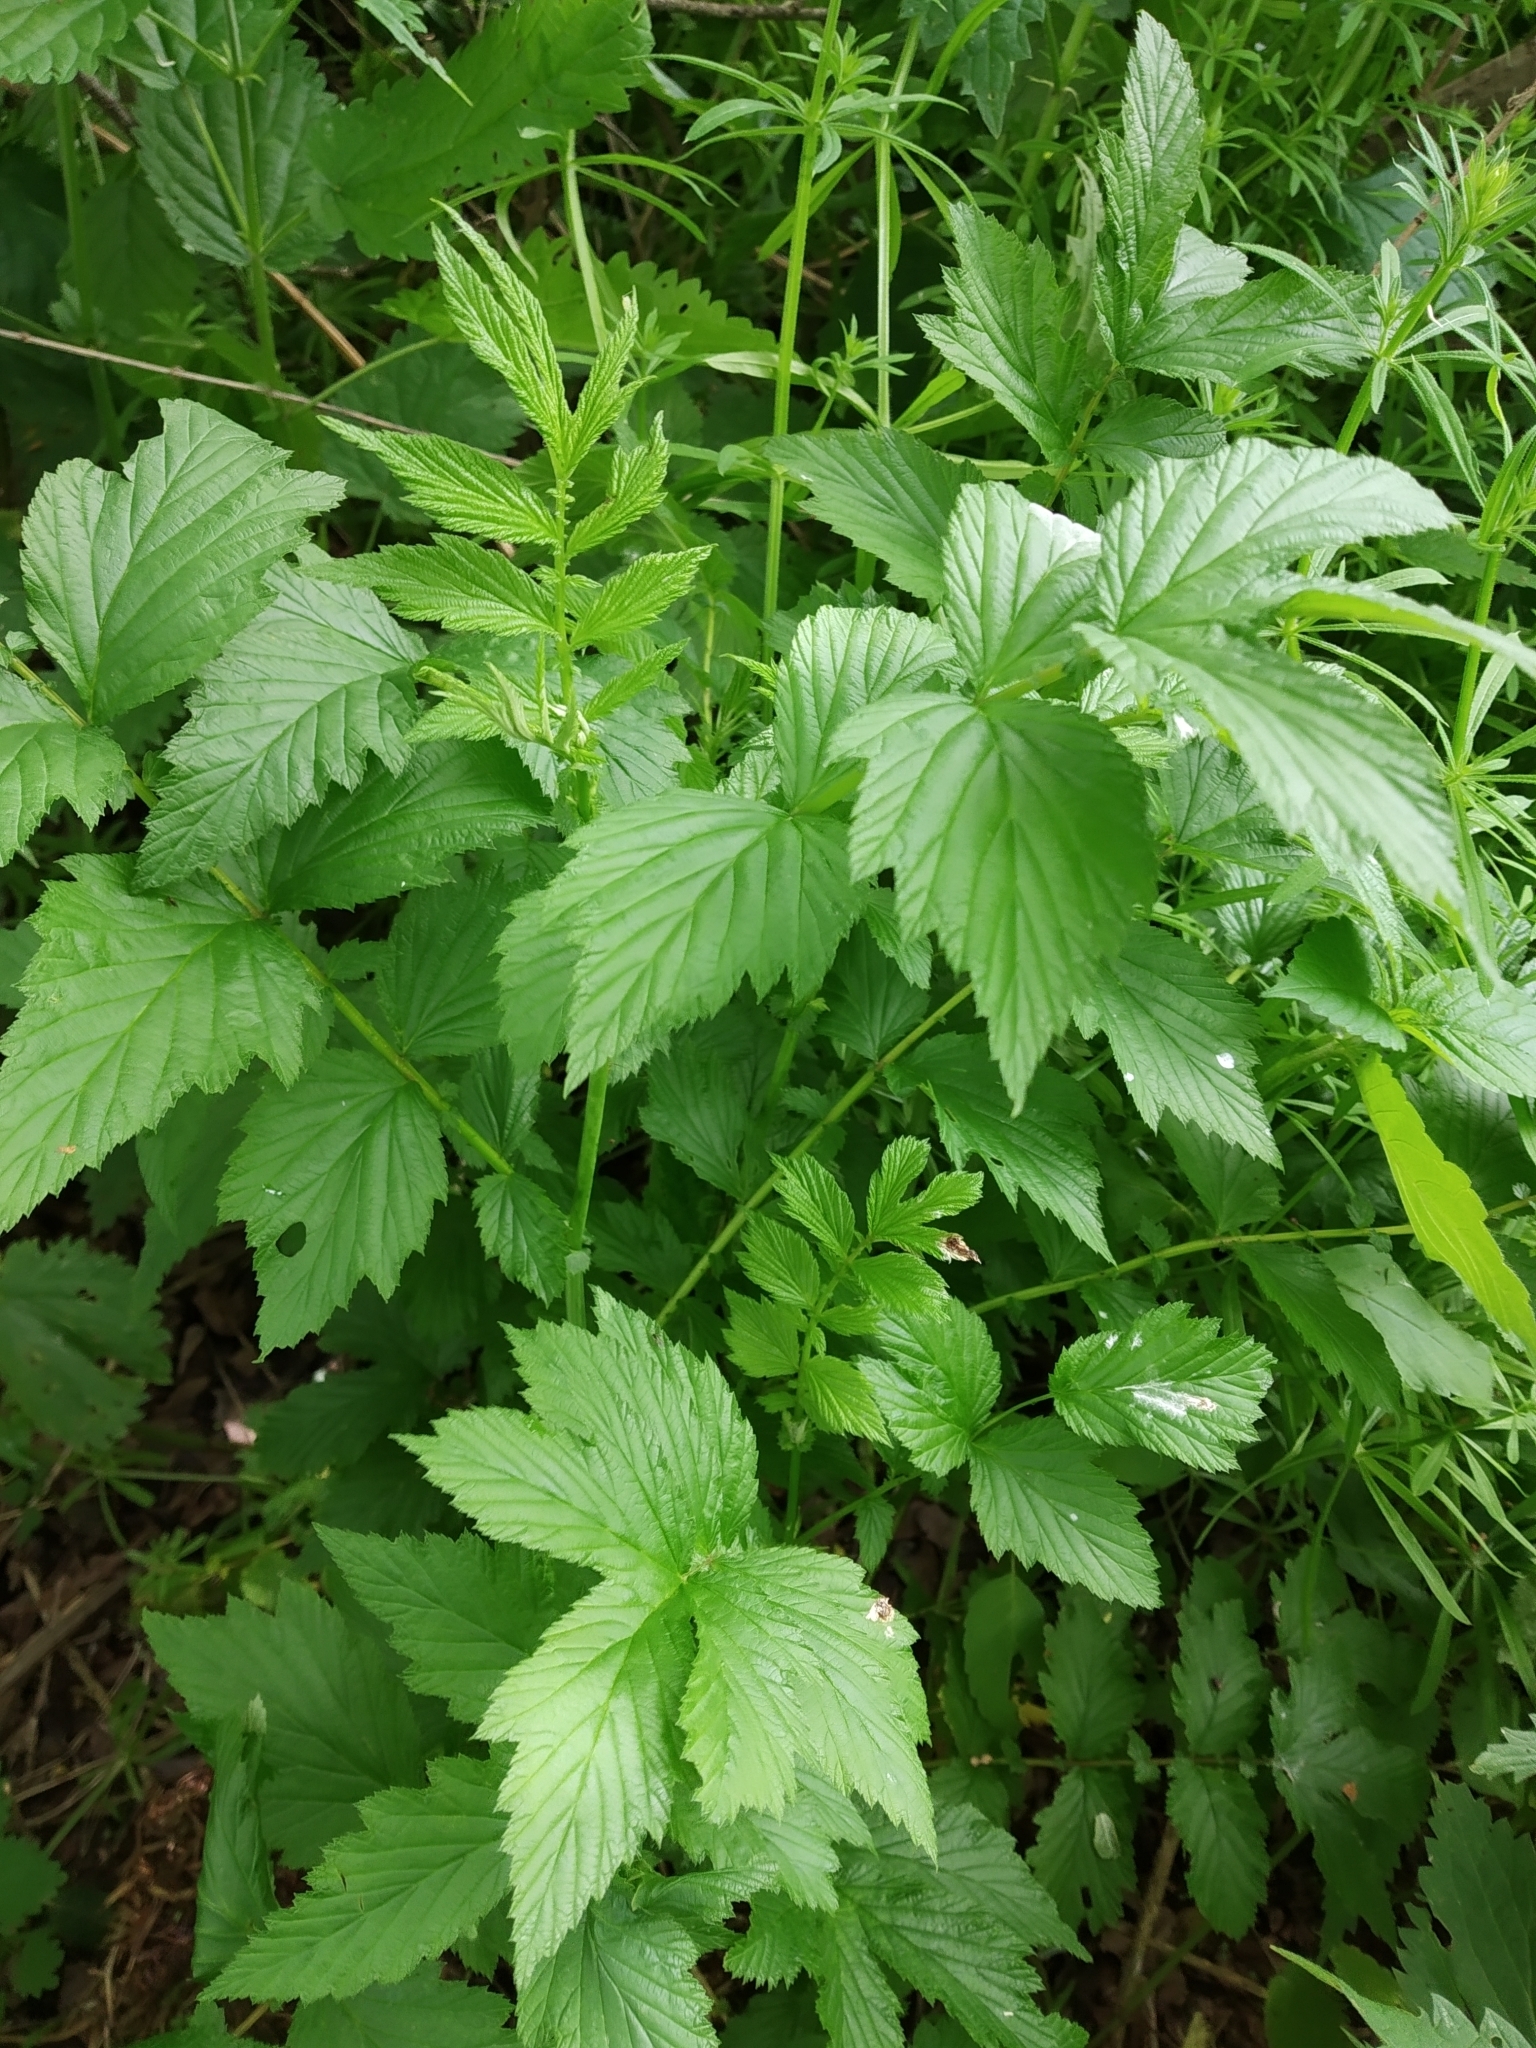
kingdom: Plantae
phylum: Tracheophyta
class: Magnoliopsida
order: Rosales
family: Rosaceae
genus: Filipendula
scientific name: Filipendula ulmaria
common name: Meadowsweet
